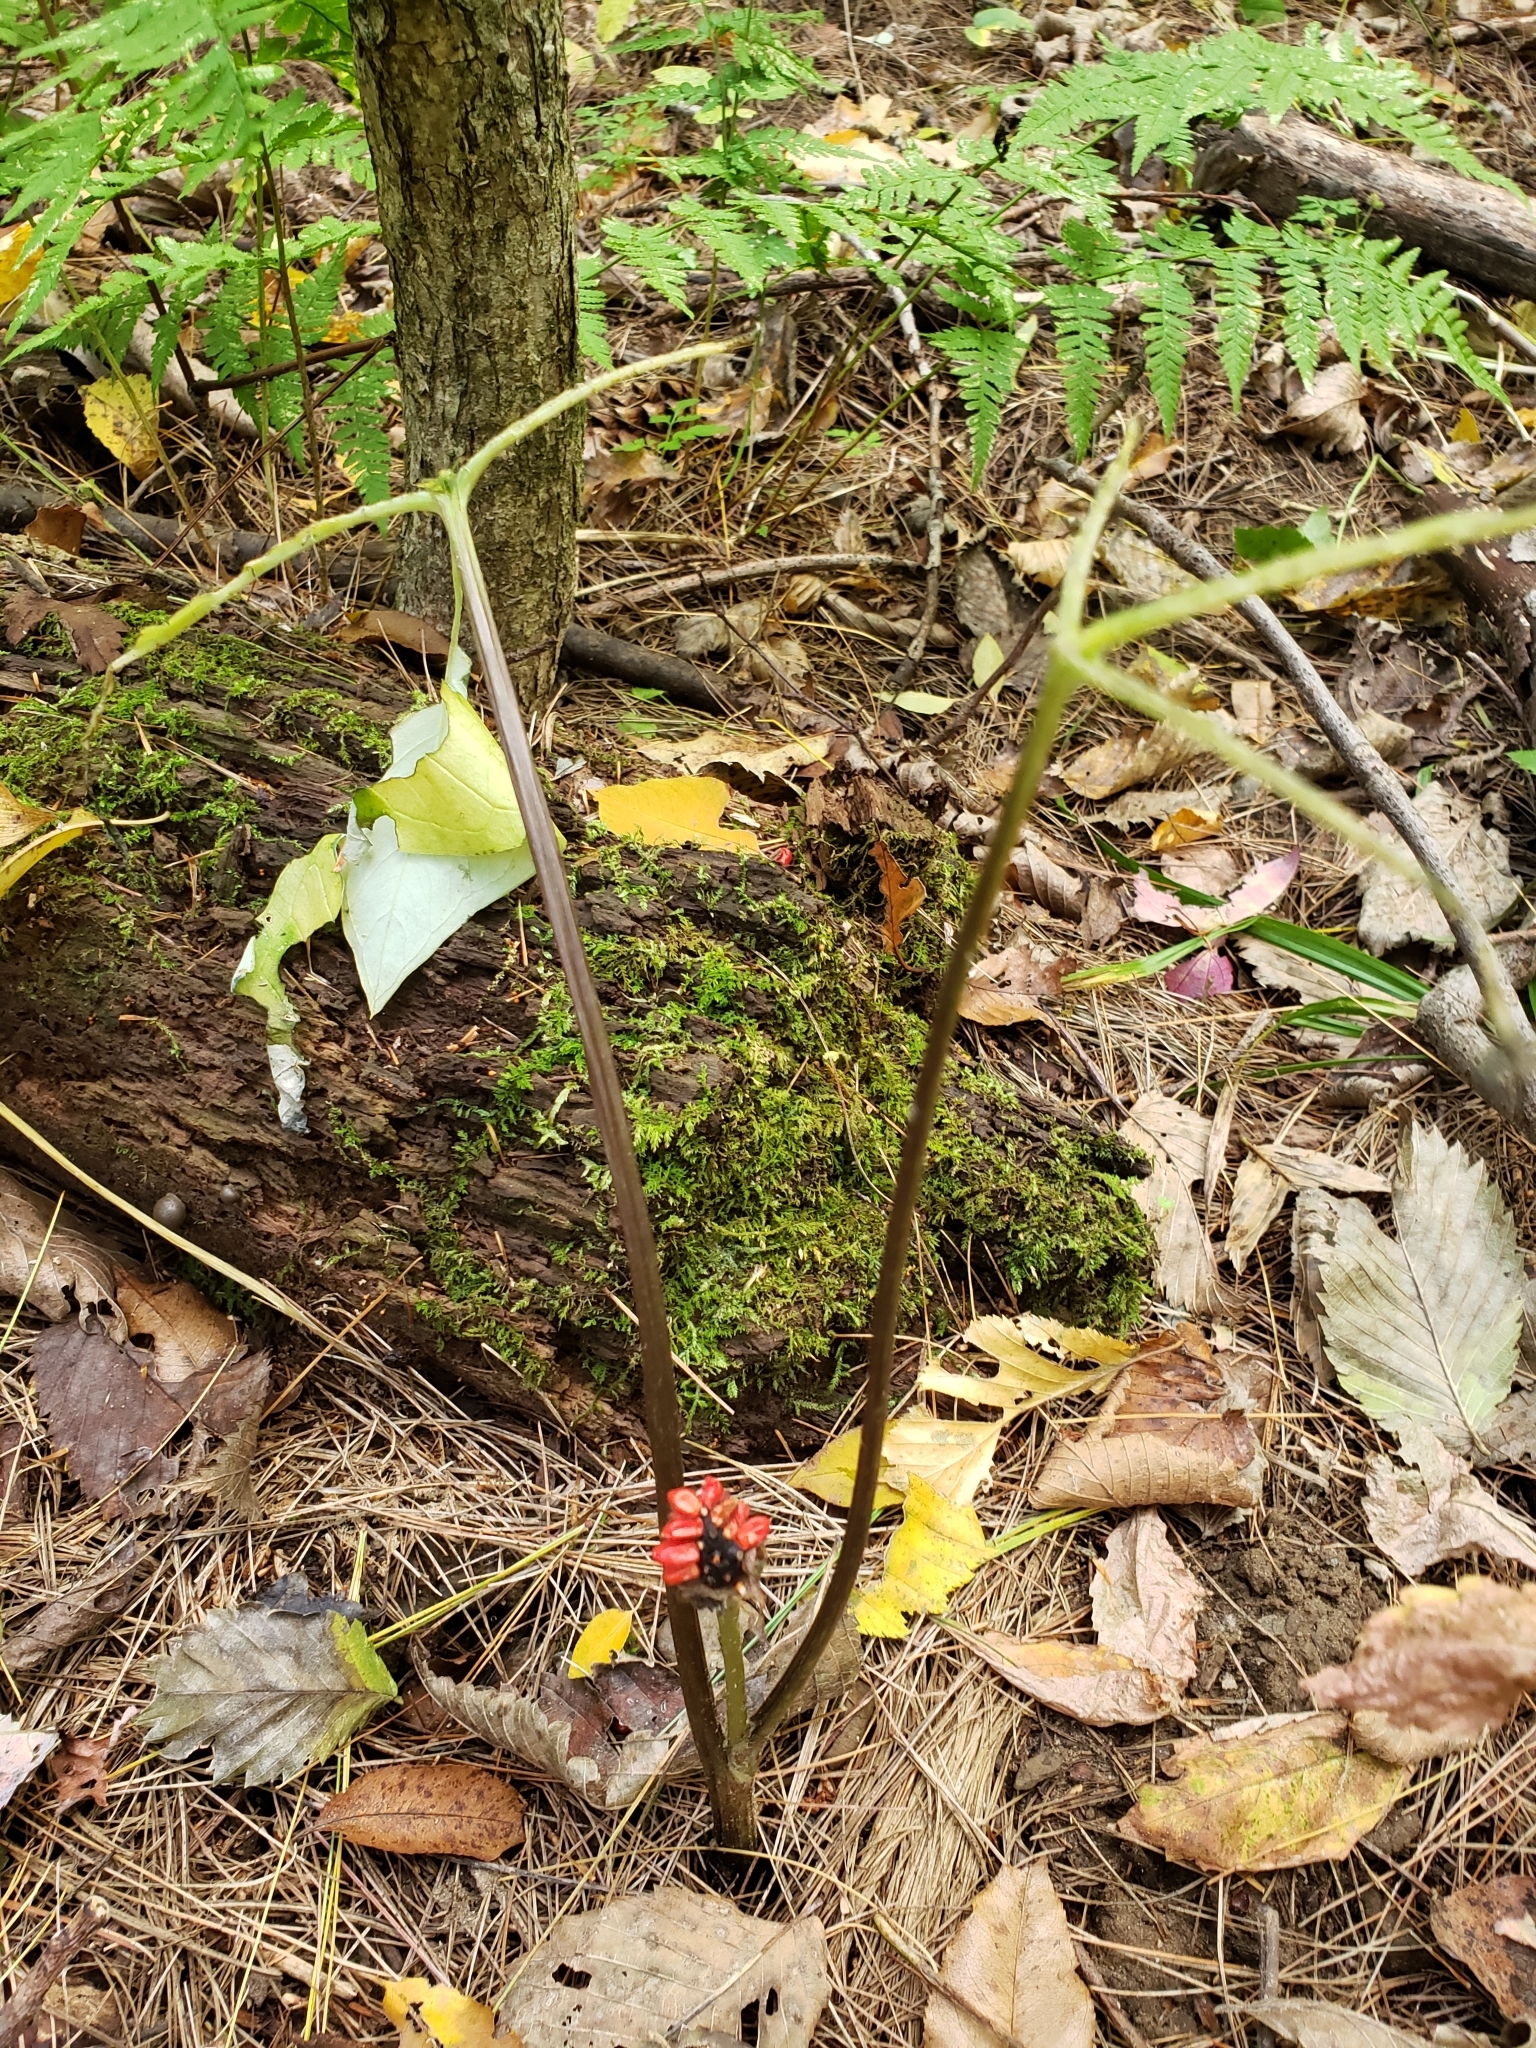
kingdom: Plantae
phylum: Tracheophyta
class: Liliopsida
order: Alismatales
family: Araceae
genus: Arisaema
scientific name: Arisaema triphyllum
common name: Jack-in-the-pulpit
